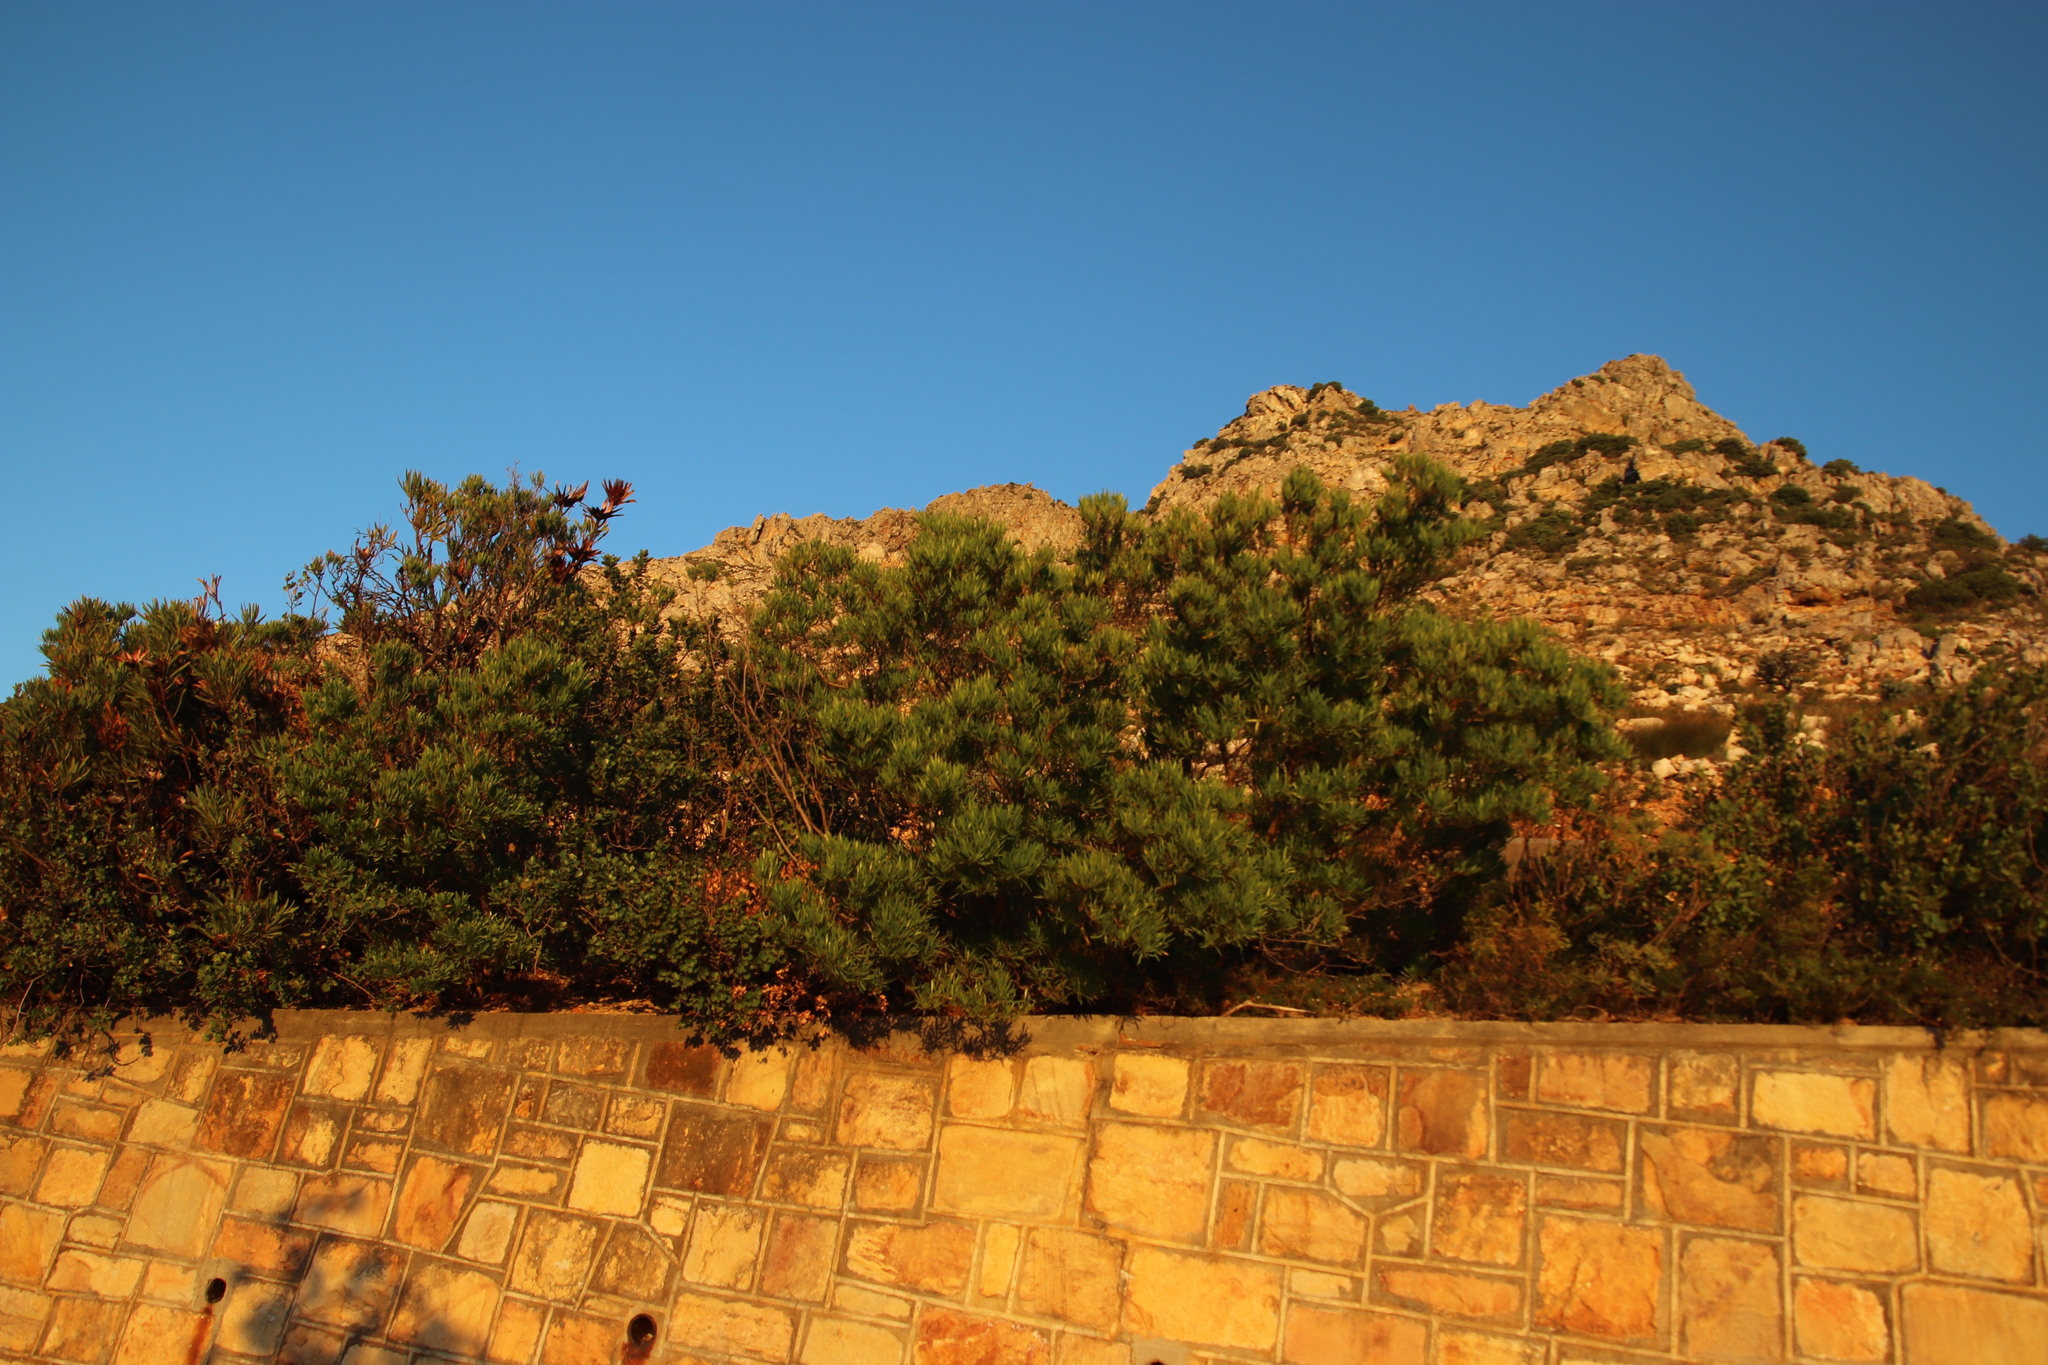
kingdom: Plantae
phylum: Tracheophyta
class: Magnoliopsida
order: Proteales
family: Proteaceae
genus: Leucadendron
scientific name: Leucadendron xanthoconus
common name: Sickle-leaf conebush
